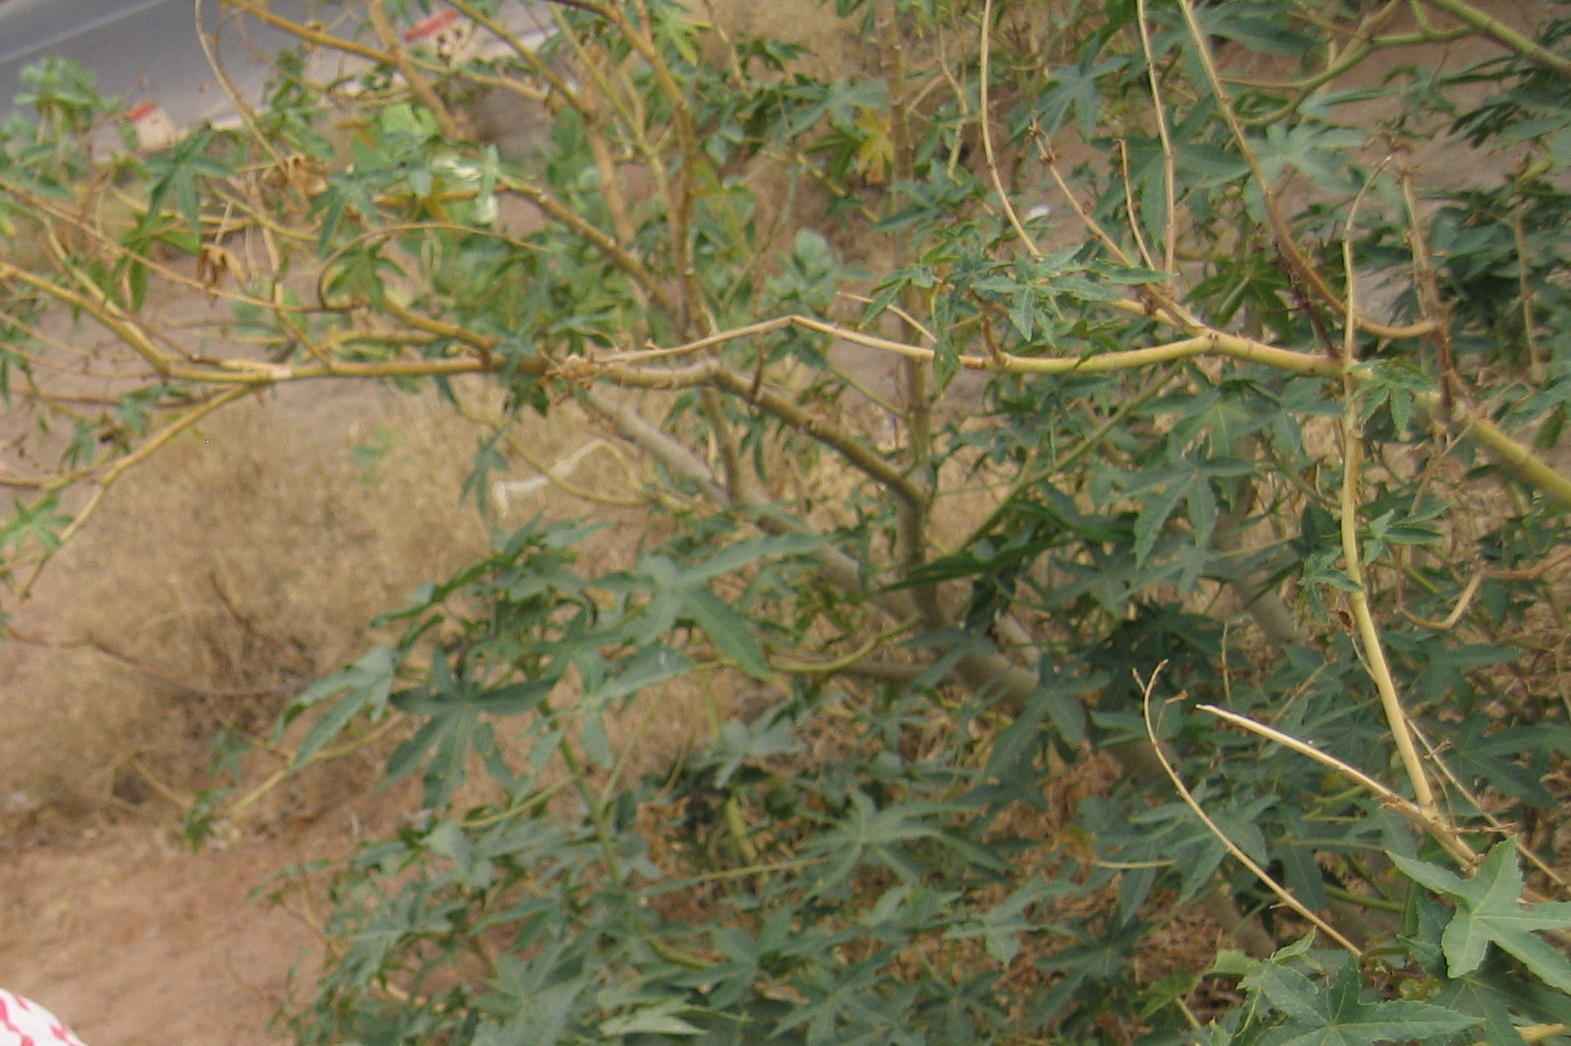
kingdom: Plantae
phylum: Tracheophyta
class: Magnoliopsida
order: Malpighiales
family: Euphorbiaceae
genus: Ricinus
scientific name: Ricinus communis
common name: Castor-oil-plant
